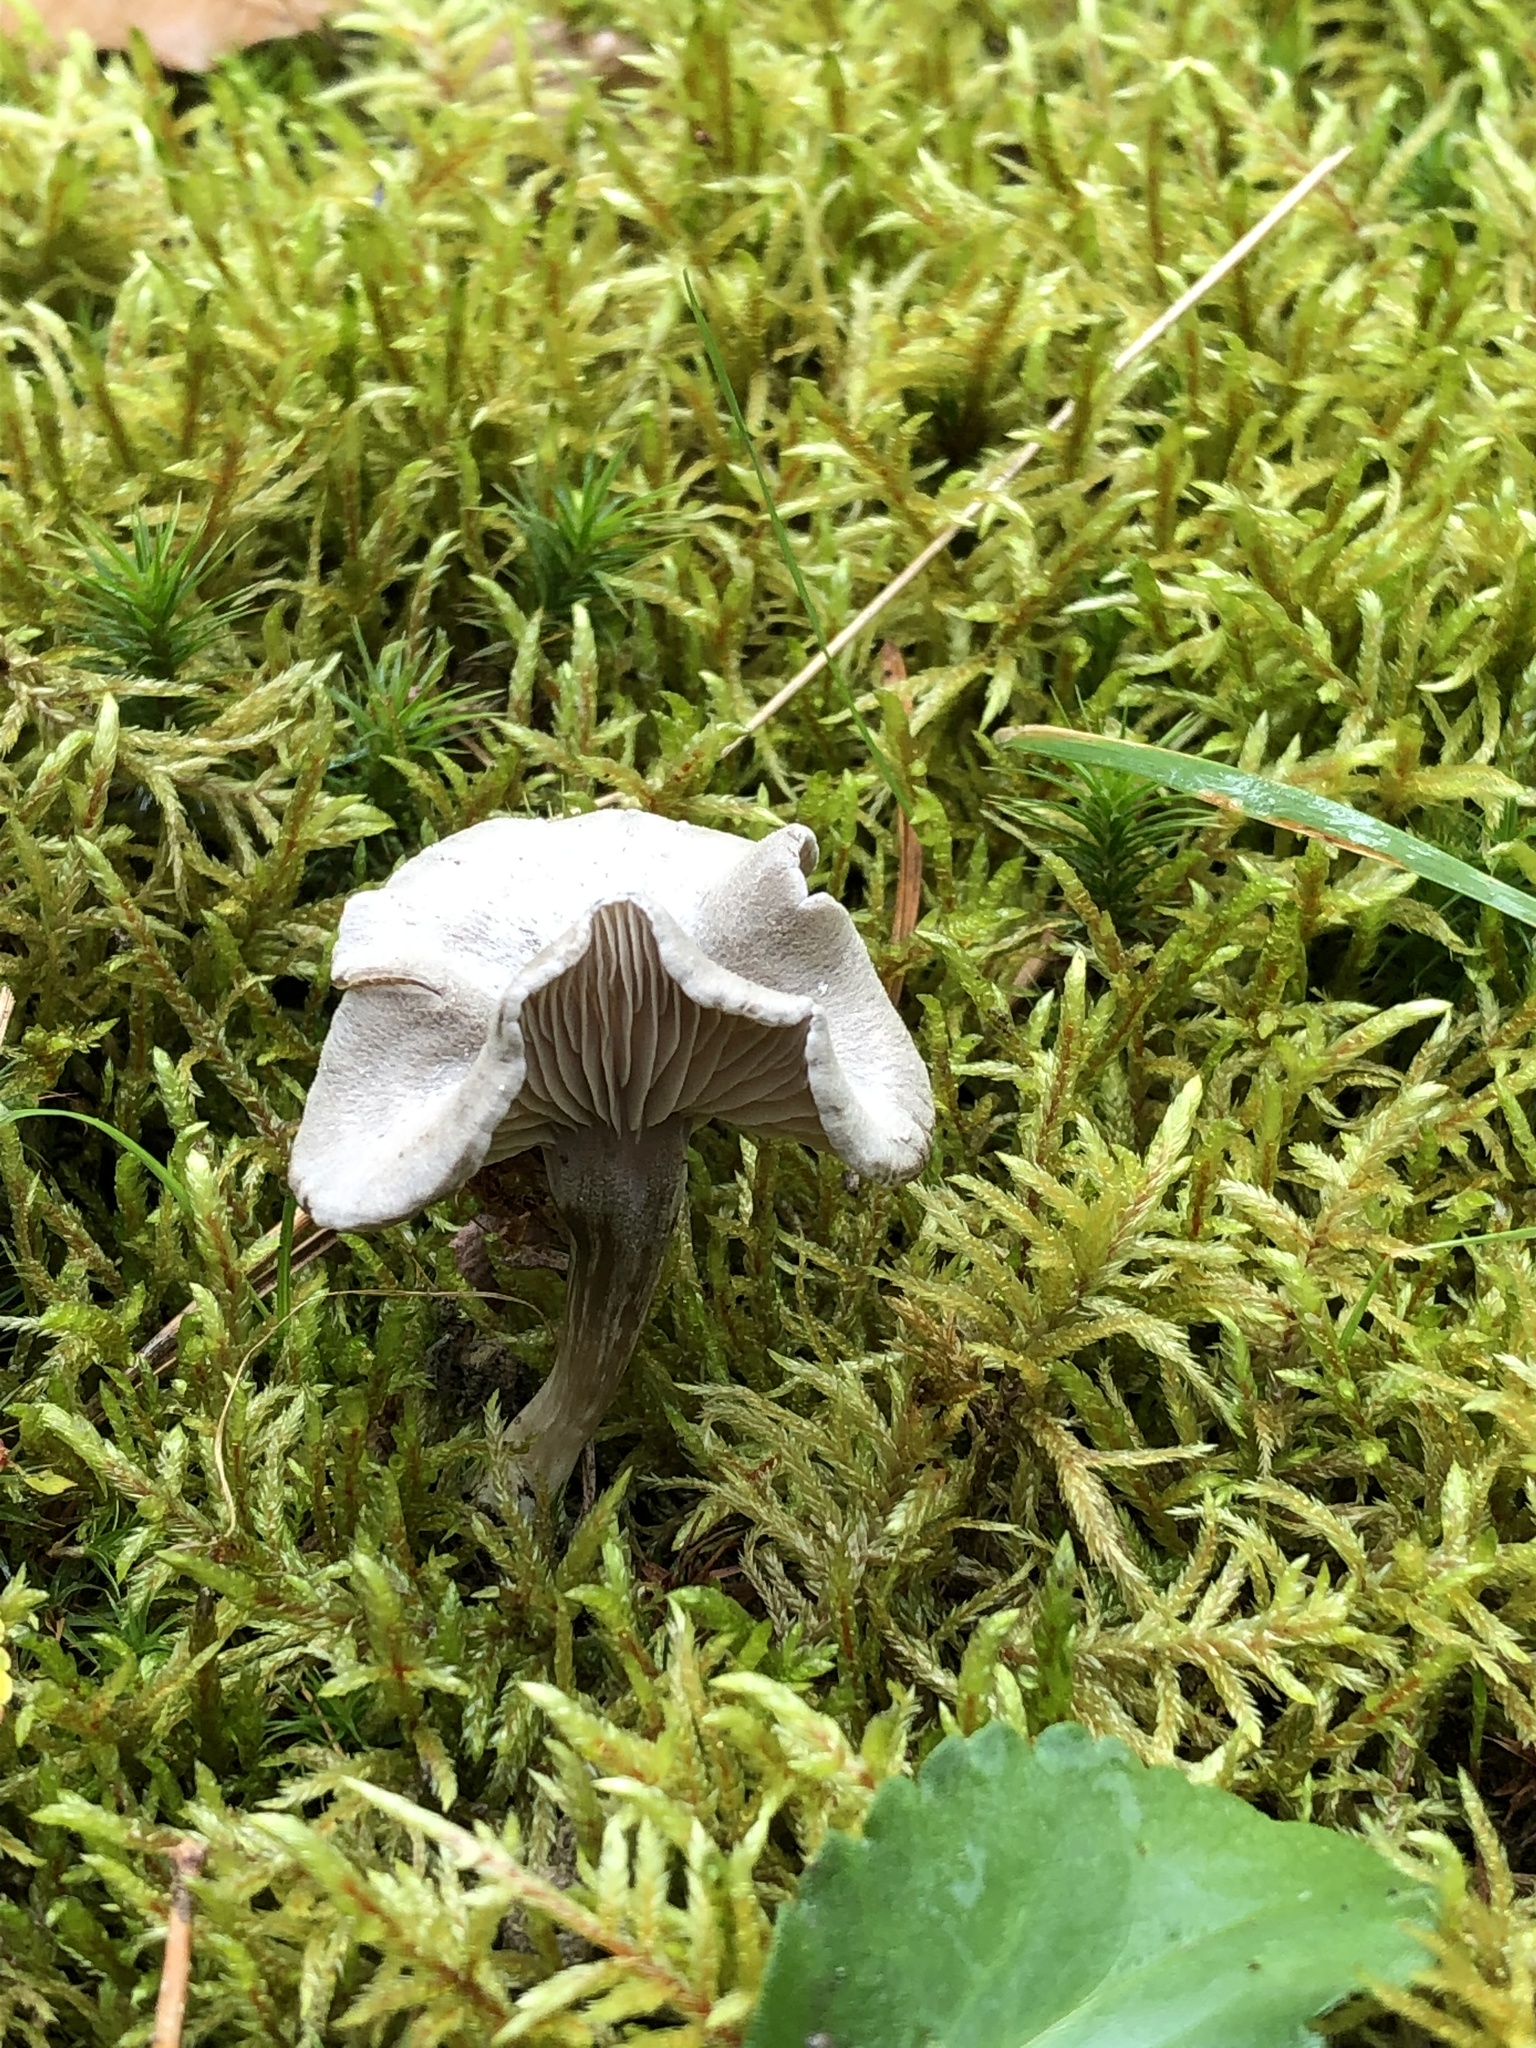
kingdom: Fungi
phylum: Basidiomycota
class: Agaricomycetes
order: Agaricales
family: Hygrophoraceae
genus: Cantharellula
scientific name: Cantharellula umbonata
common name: The humpback
